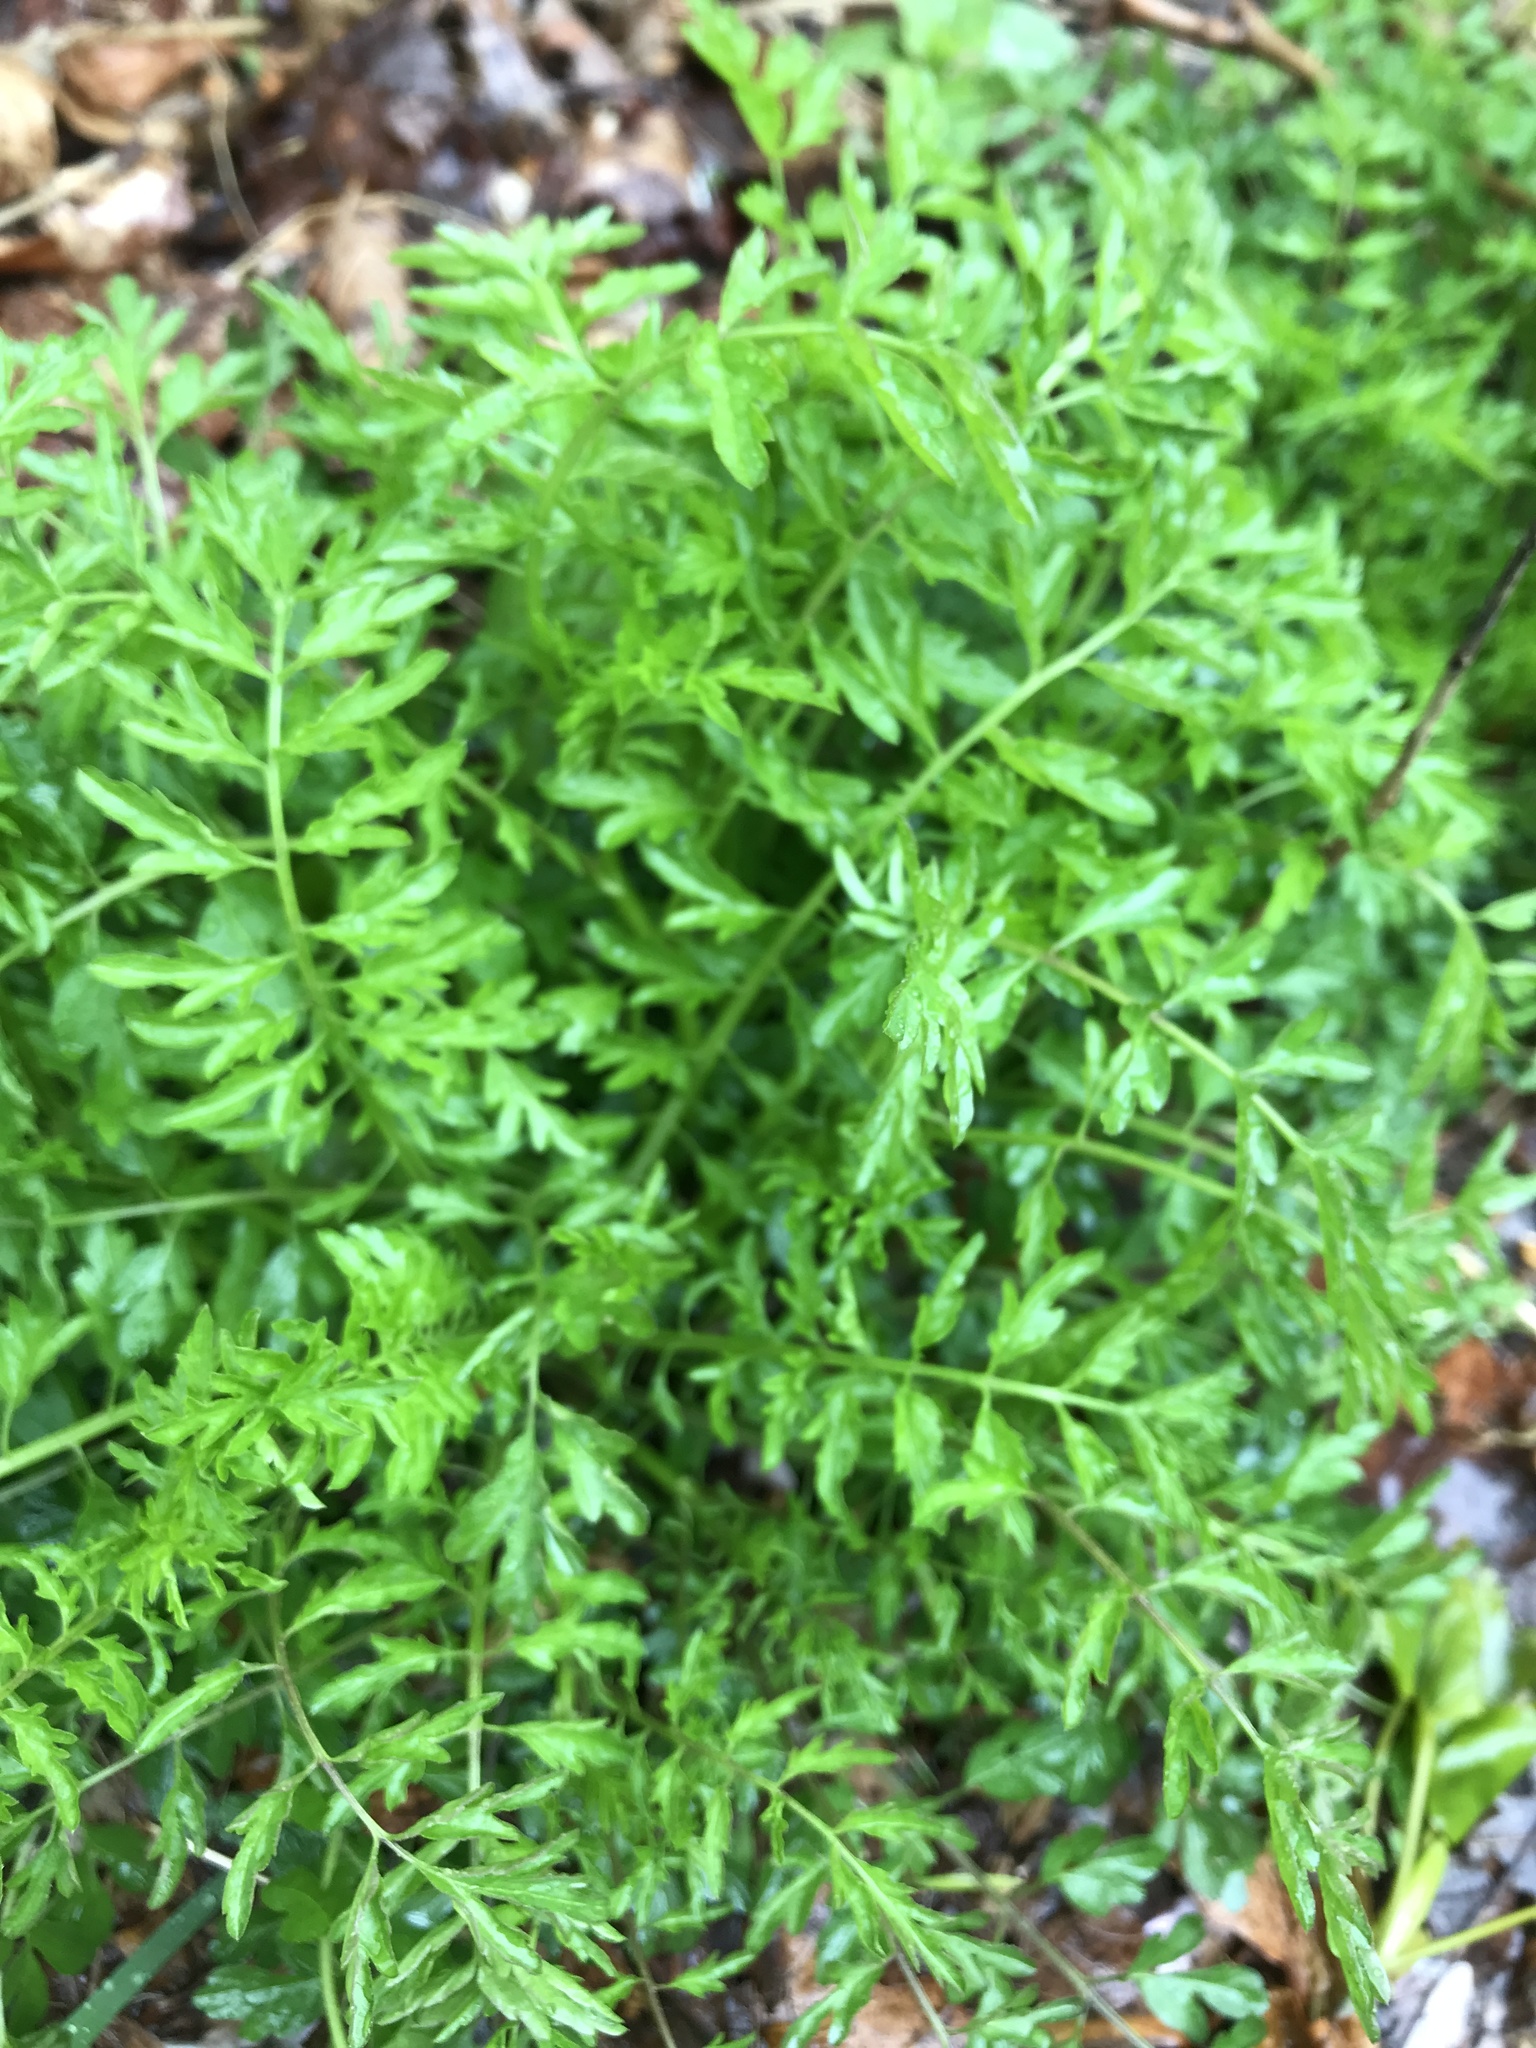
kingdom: Plantae
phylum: Tracheophyta
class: Magnoliopsida
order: Brassicales
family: Brassicaceae
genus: Cardamine
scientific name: Cardamine impatiens
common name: Narrow-leaved bitter-cress
